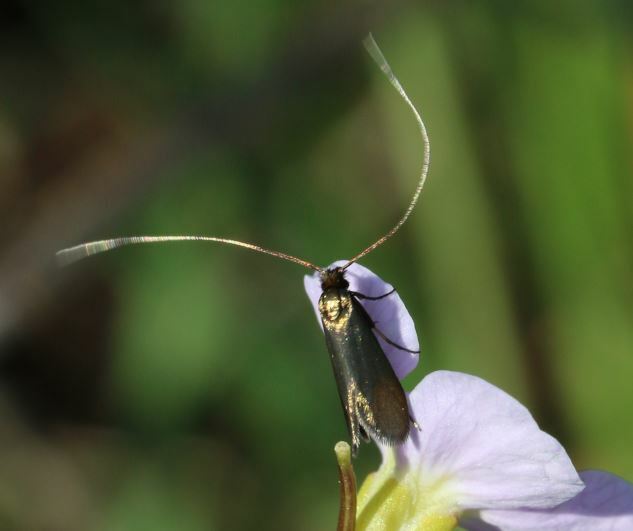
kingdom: Animalia
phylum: Arthropoda
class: Insecta
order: Lepidoptera
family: Adelidae
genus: Cauchas
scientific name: Cauchas rufimitrella
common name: Meadow long-horn
